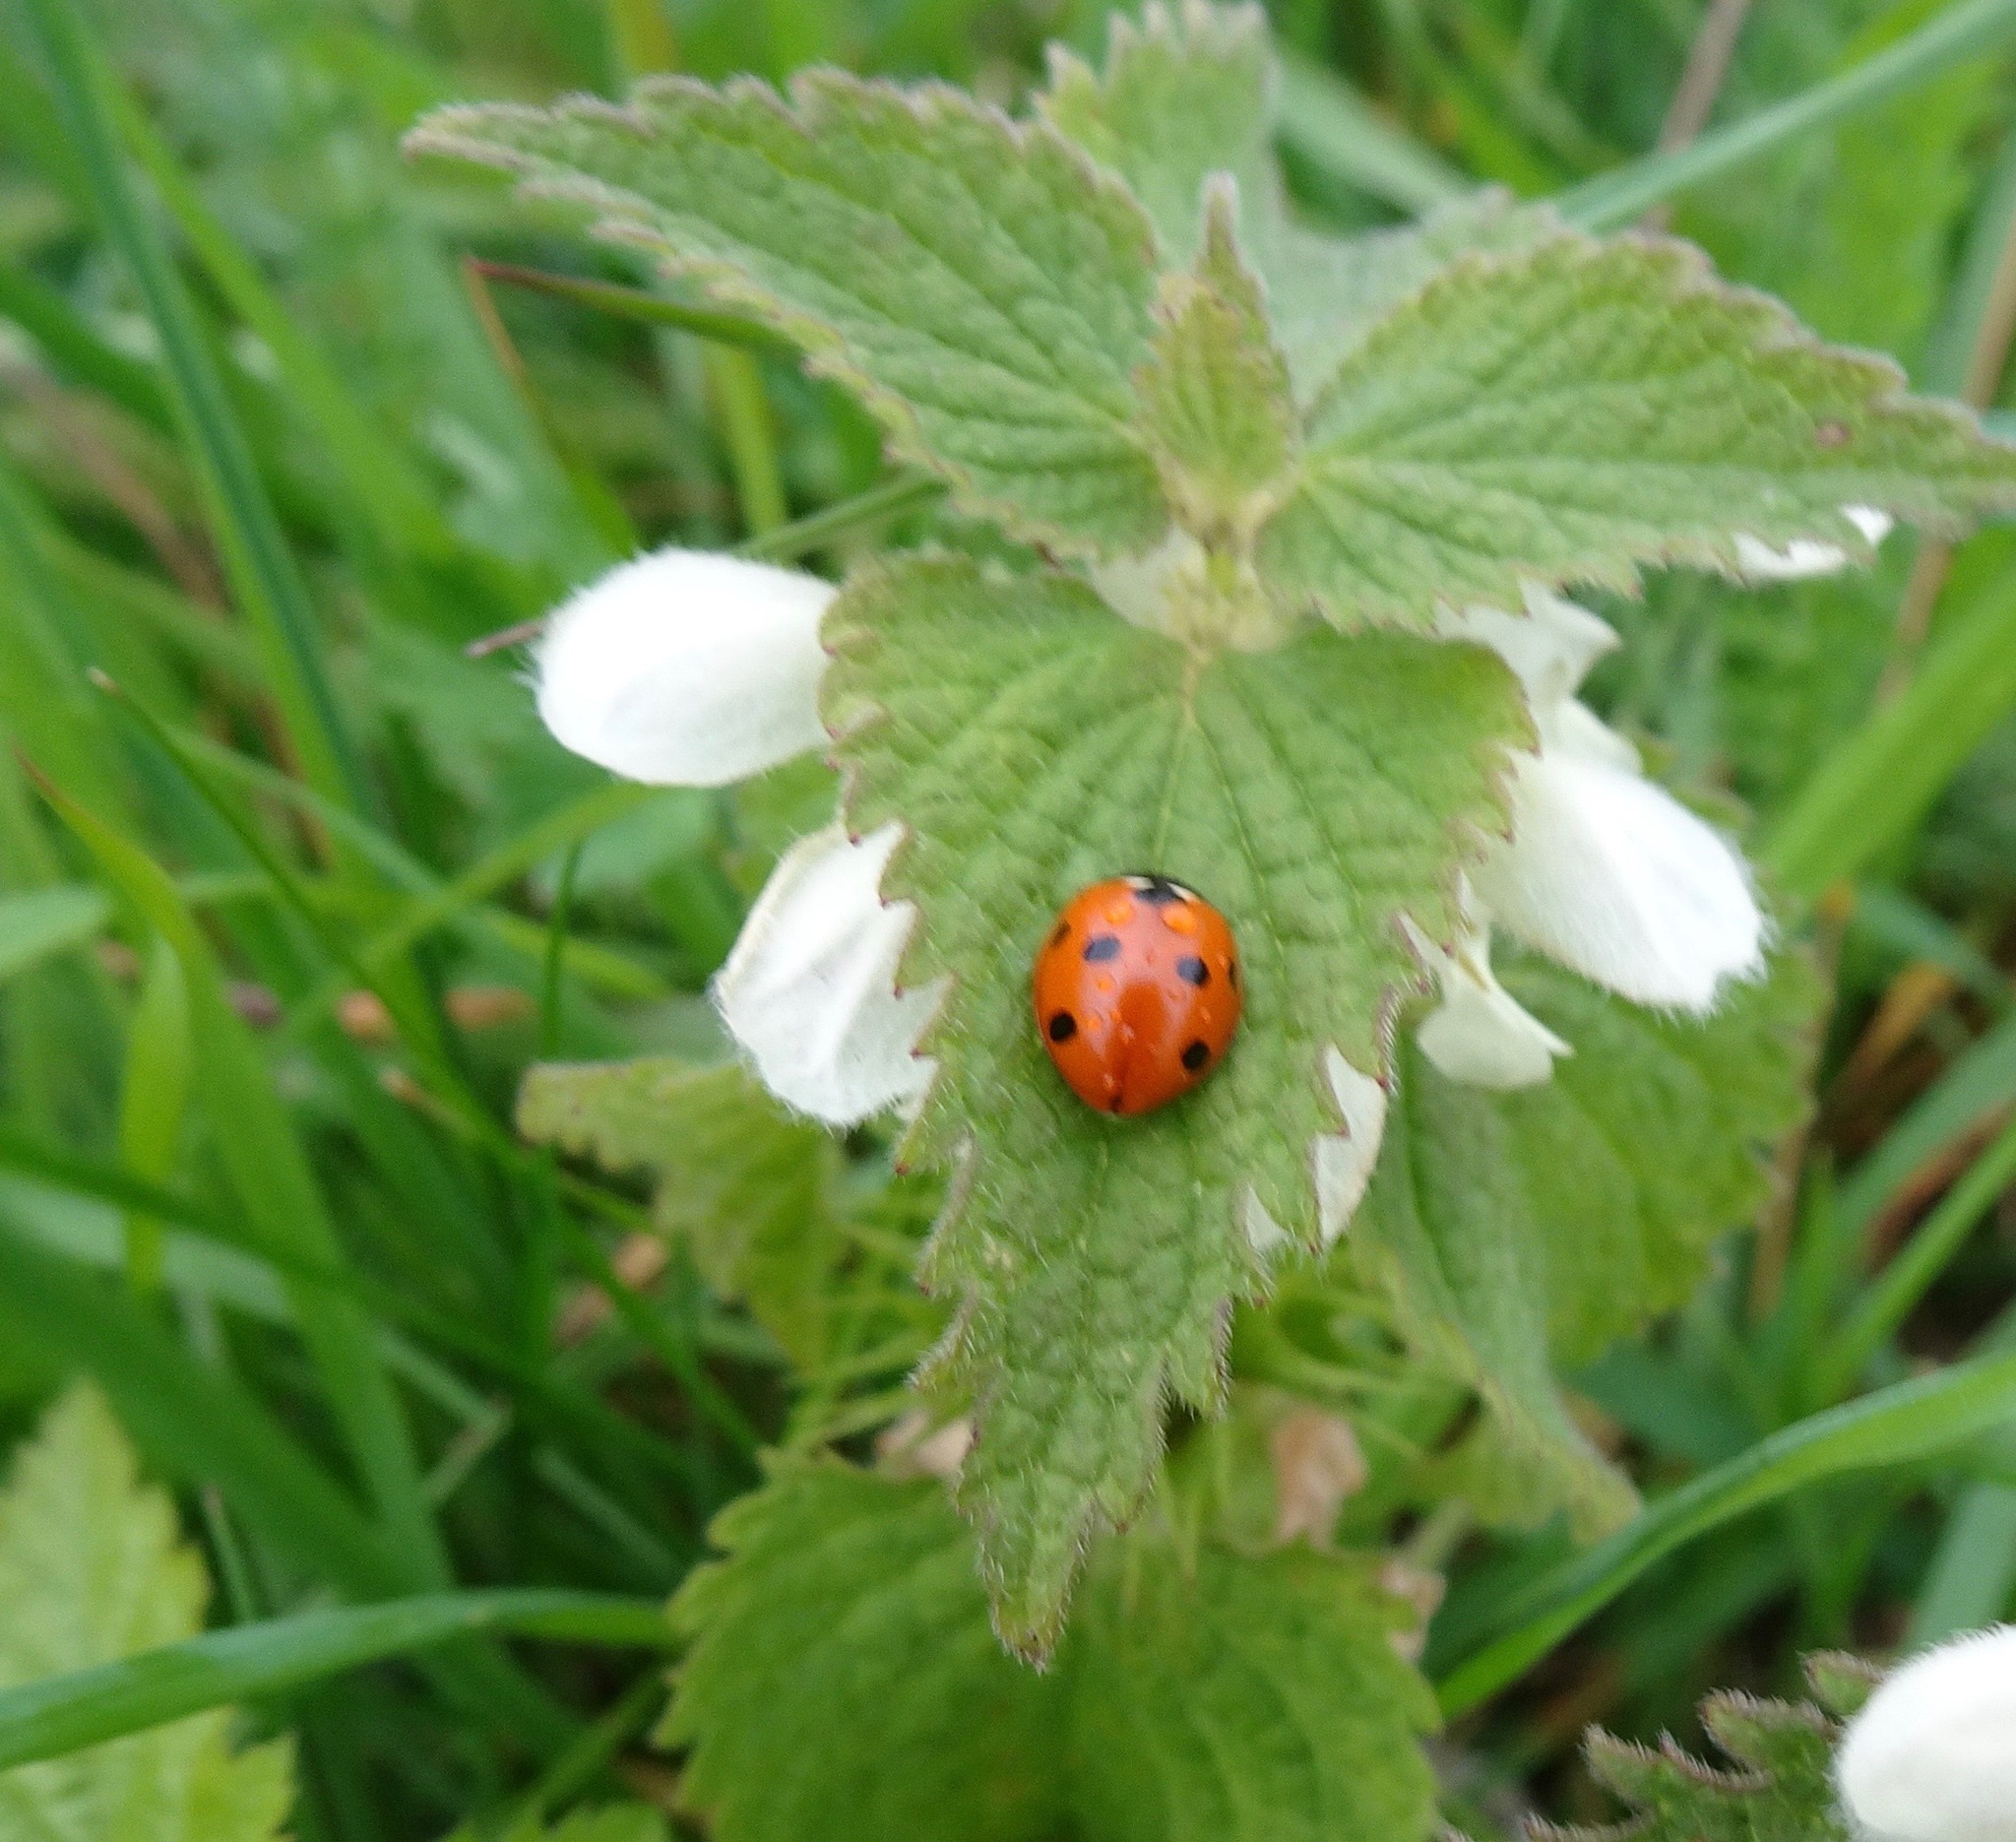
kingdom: Animalia
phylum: Arthropoda
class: Insecta
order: Coleoptera
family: Coccinellidae
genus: Coccinella
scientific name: Coccinella septempunctata
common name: Sevenspotted lady beetle
